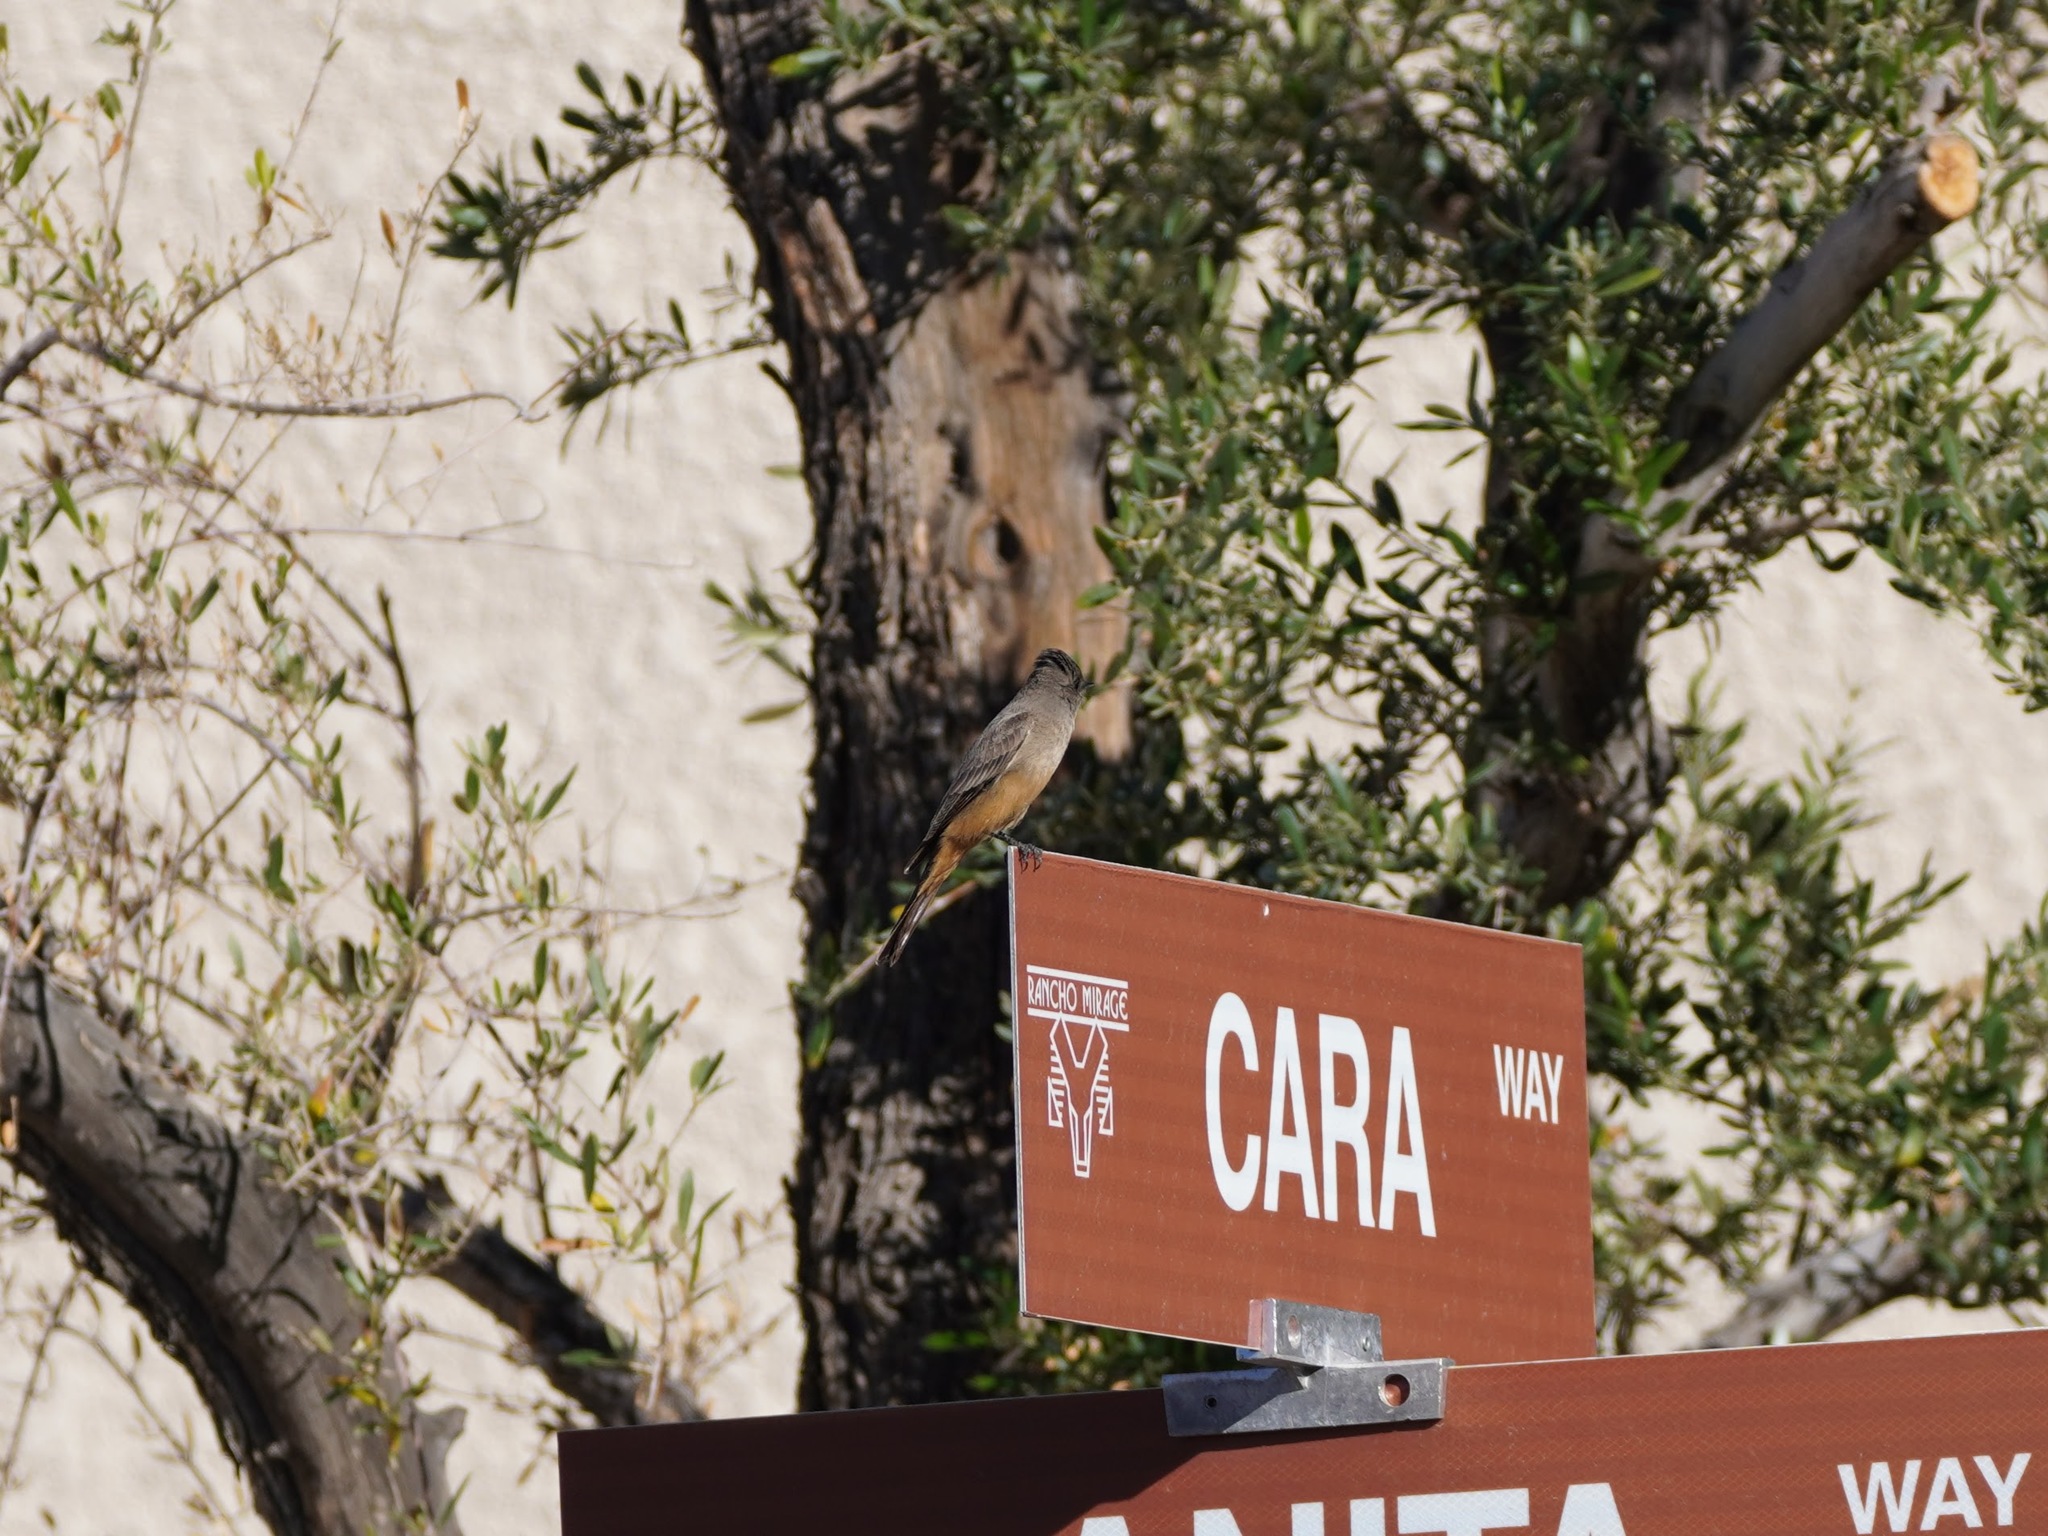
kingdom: Animalia
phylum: Chordata
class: Aves
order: Passeriformes
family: Tyrannidae
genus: Sayornis
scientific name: Sayornis saya
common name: Say's phoebe
